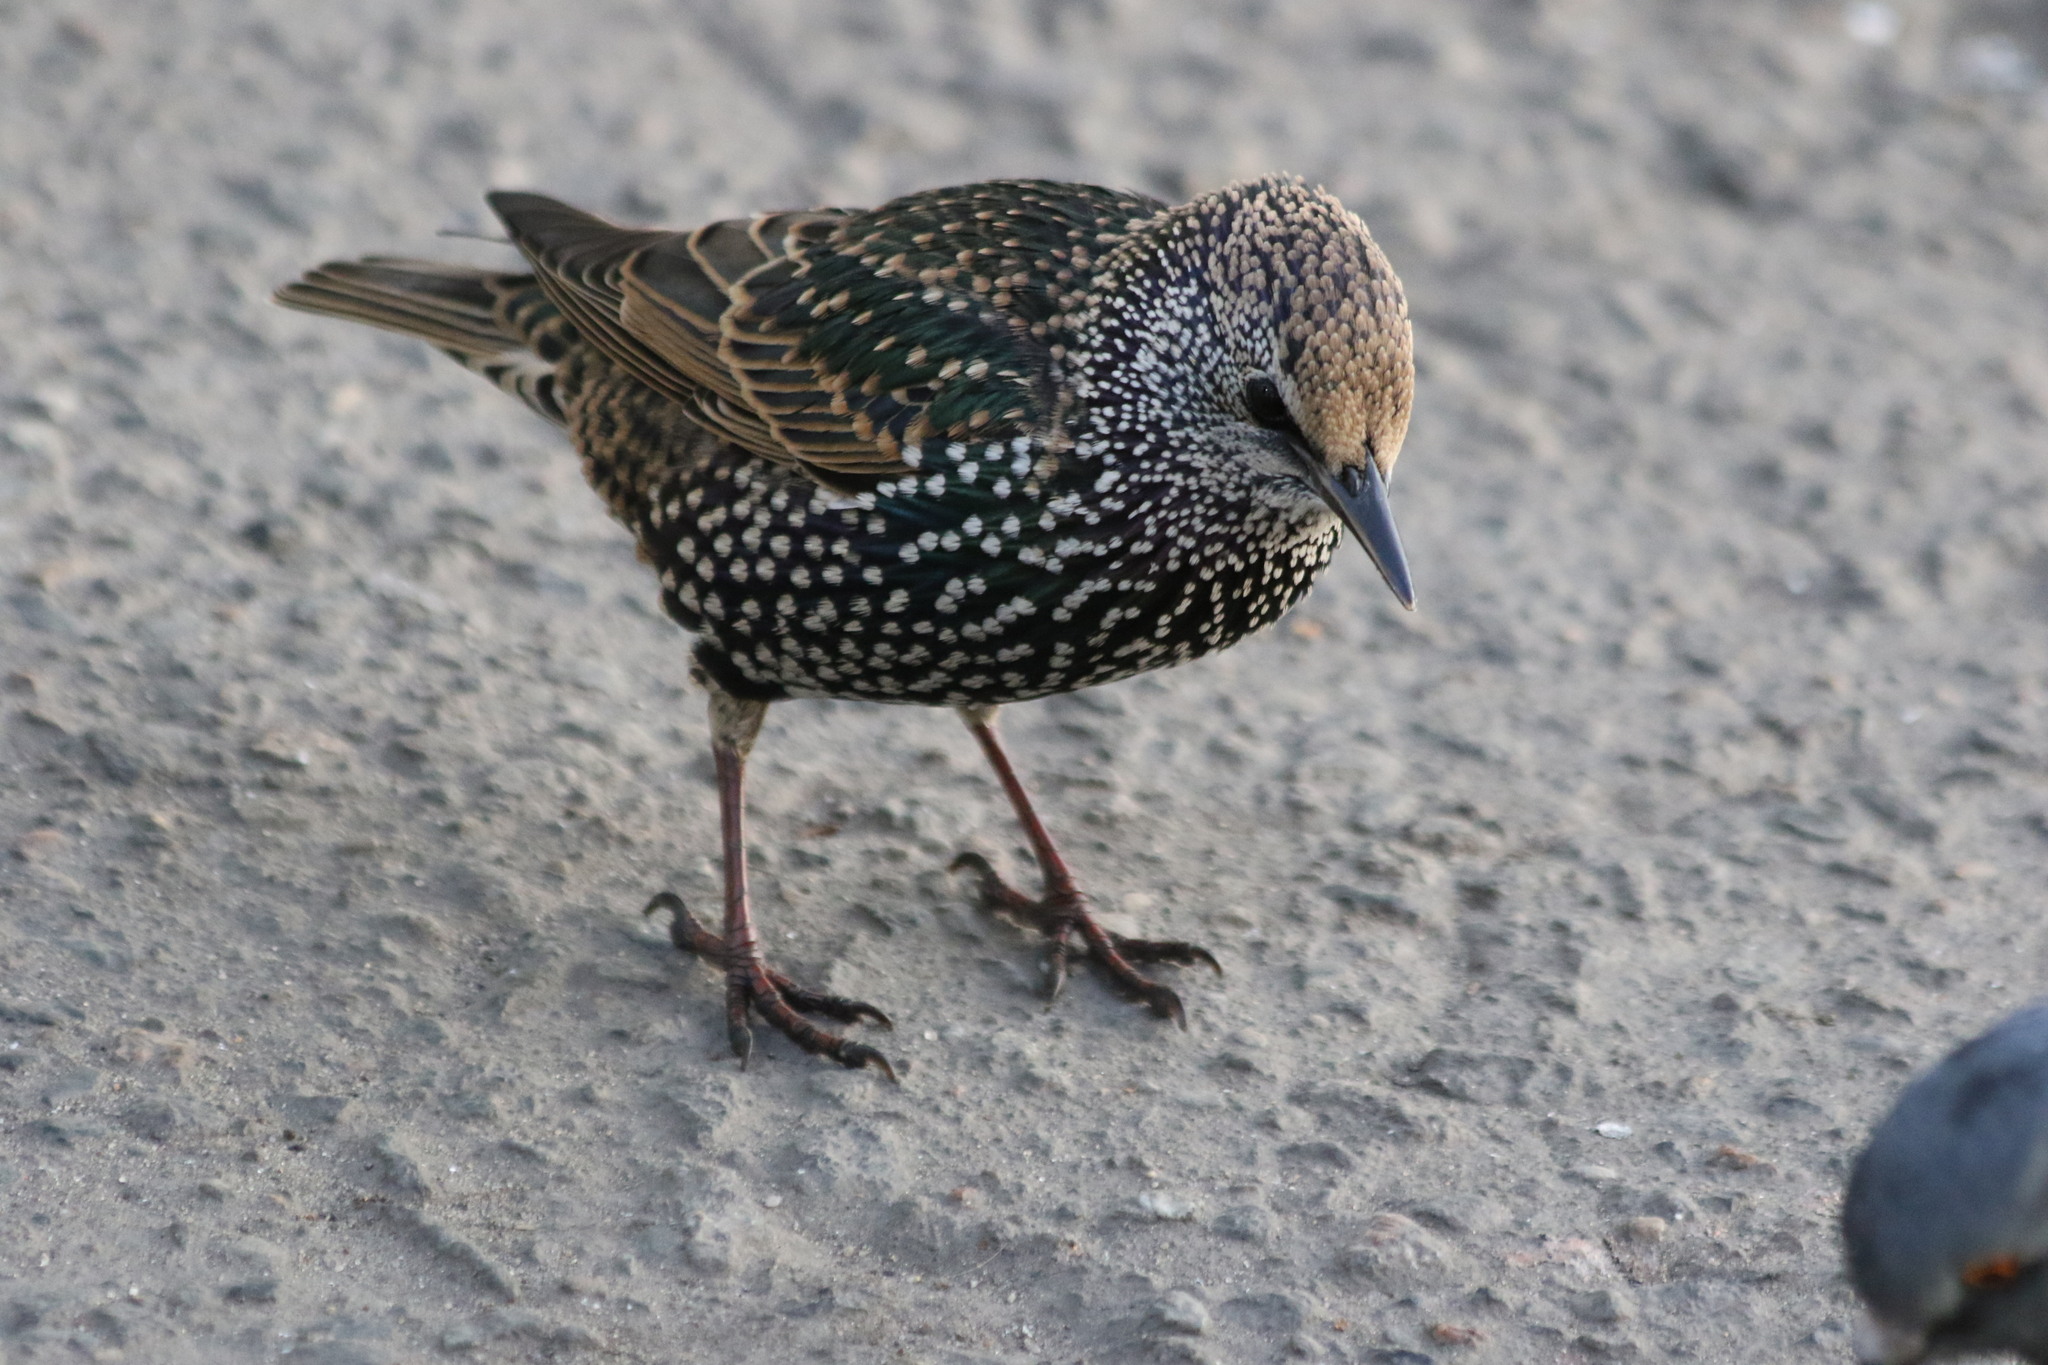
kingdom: Animalia
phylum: Chordata
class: Aves
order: Passeriformes
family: Sturnidae
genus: Sturnus
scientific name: Sturnus vulgaris
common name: Common starling
